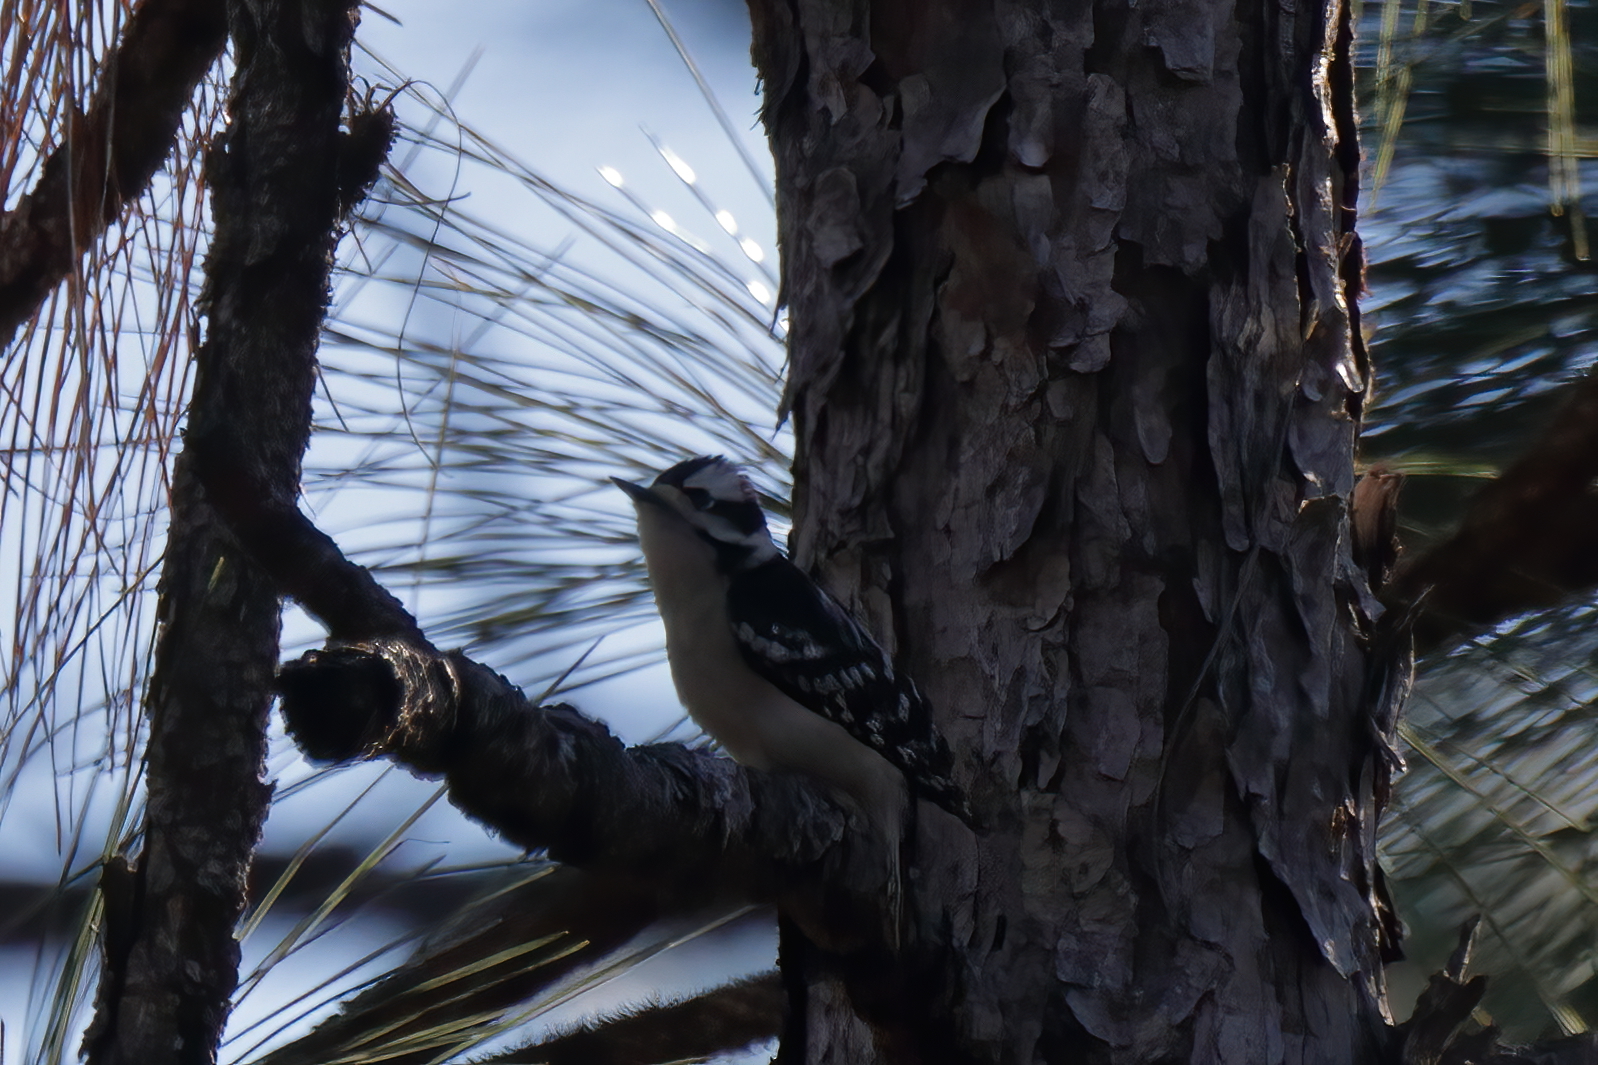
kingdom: Animalia
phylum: Chordata
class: Aves
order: Piciformes
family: Picidae
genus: Dryobates
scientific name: Dryobates pubescens
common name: Downy woodpecker
